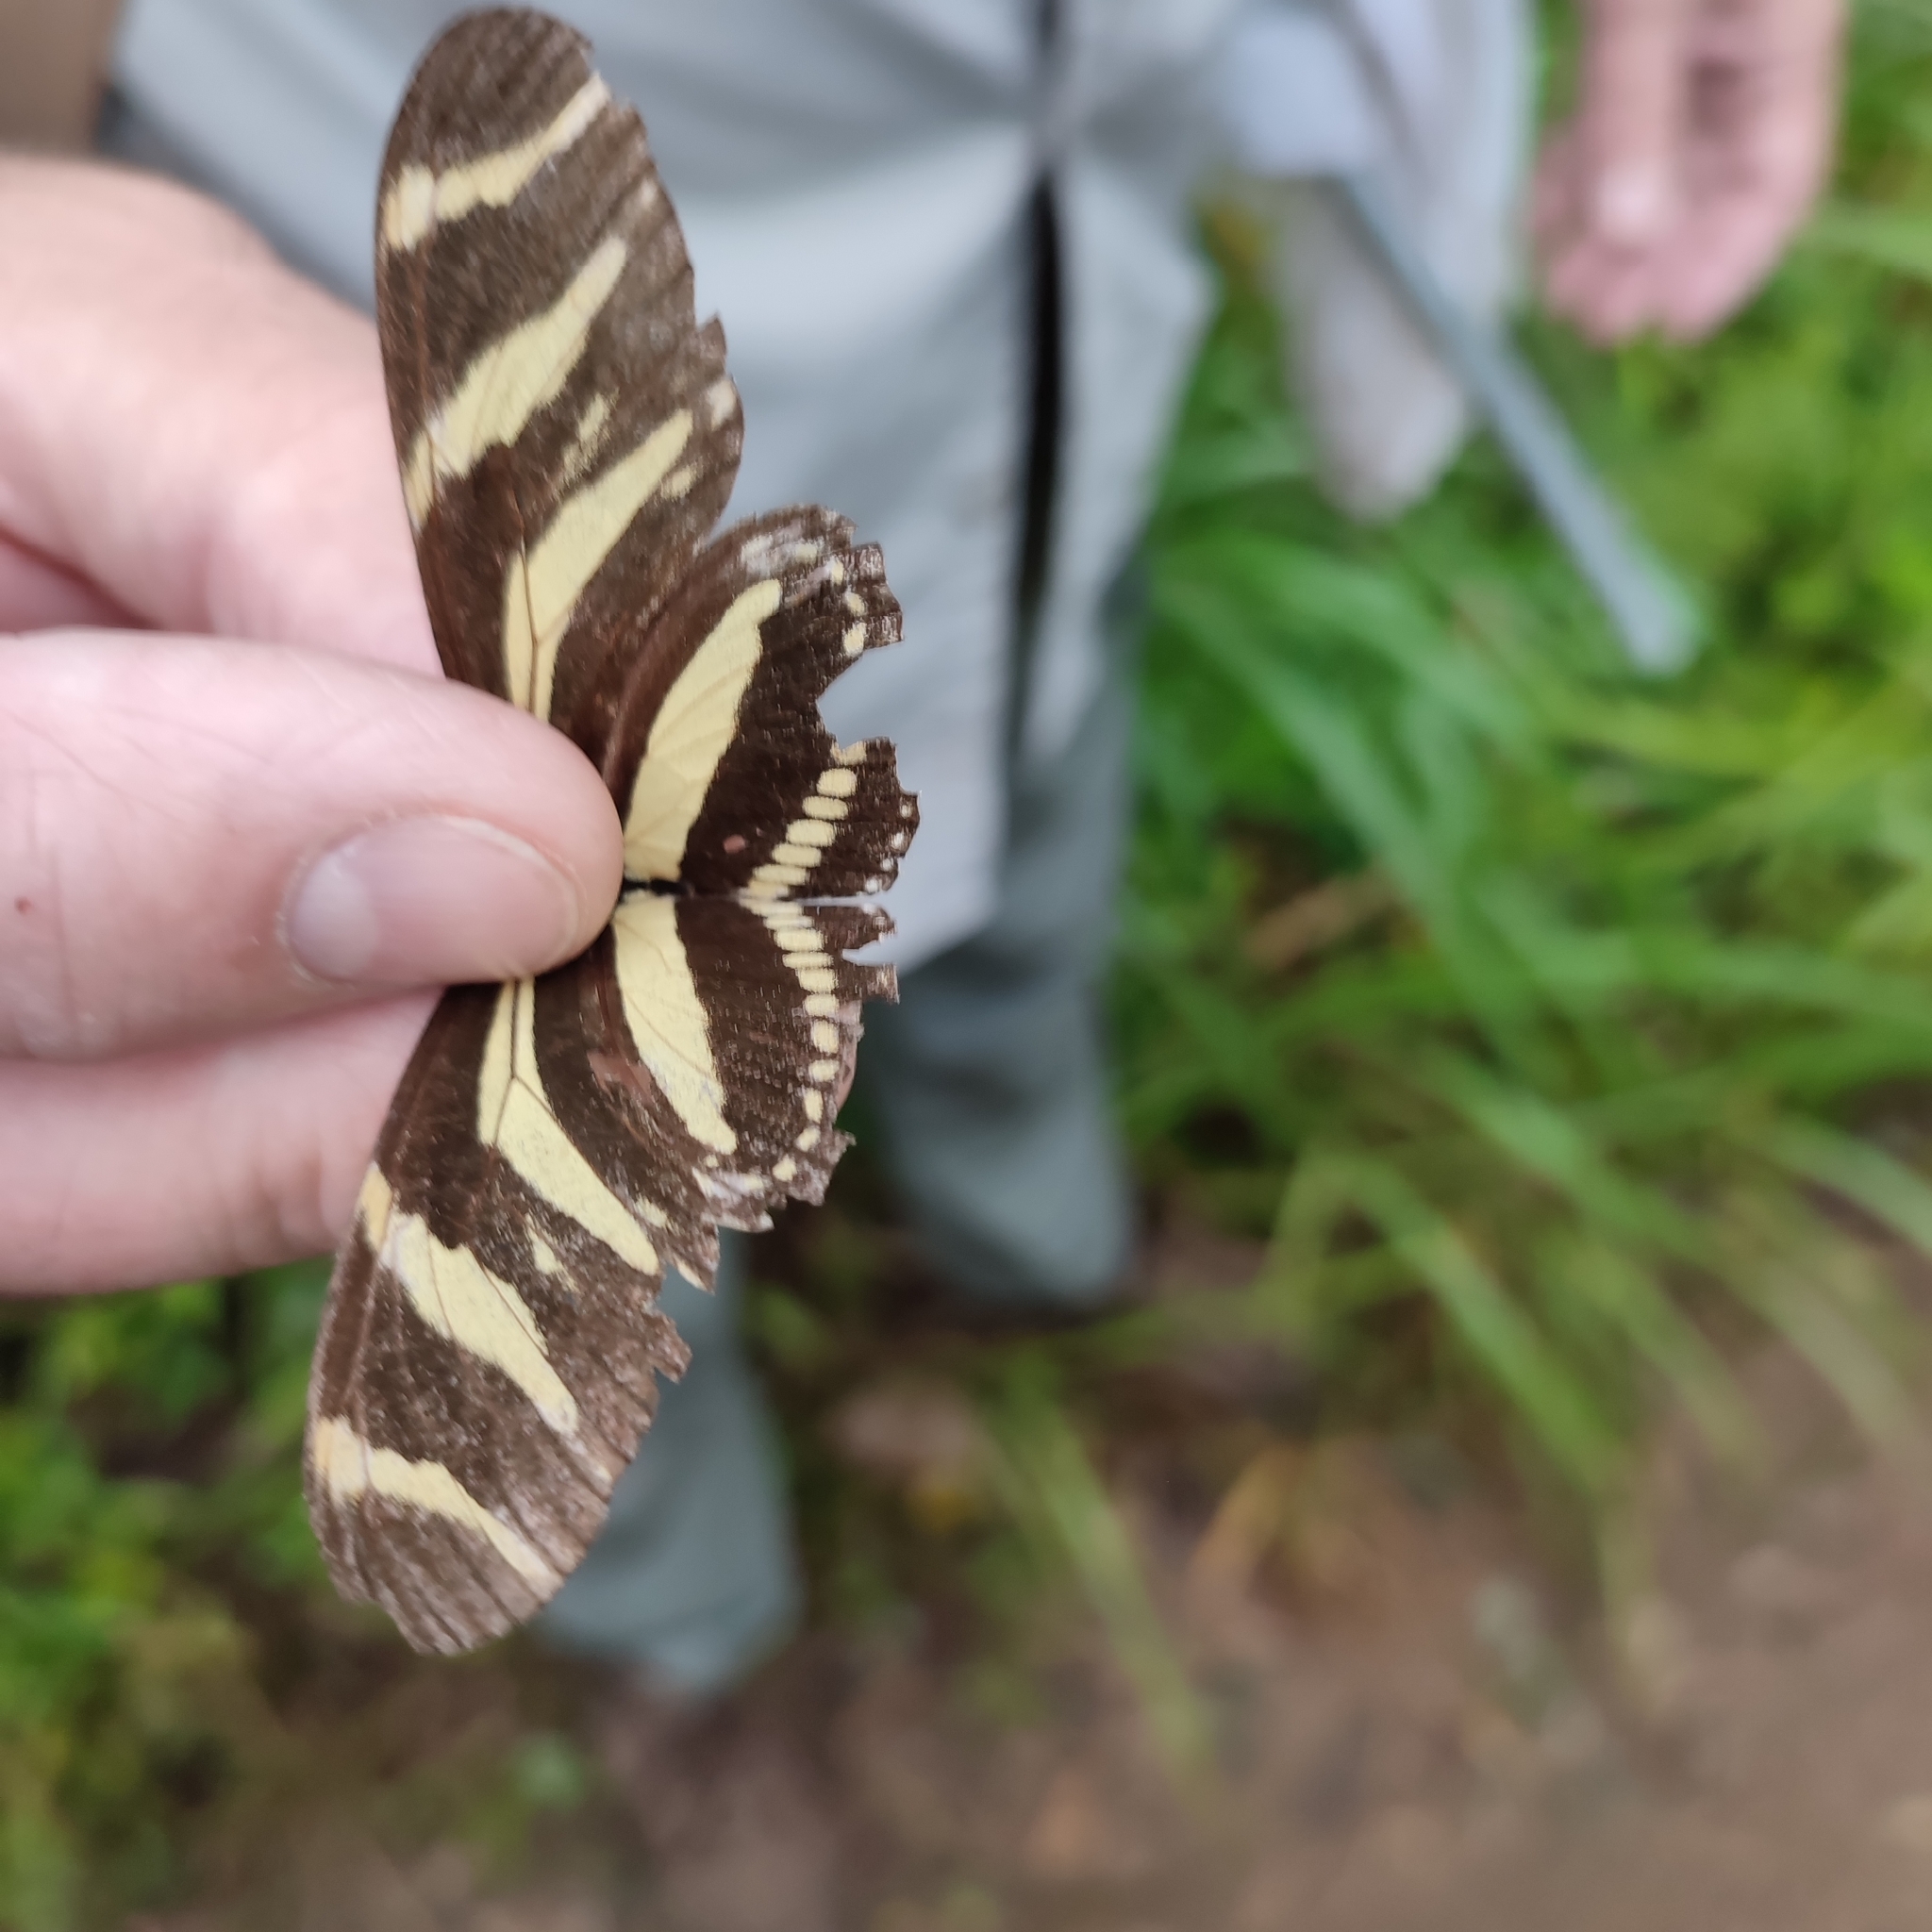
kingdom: Animalia
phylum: Arthropoda
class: Insecta
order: Lepidoptera
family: Nymphalidae
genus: Heliconius
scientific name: Heliconius charithonia
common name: Zebra long wing
